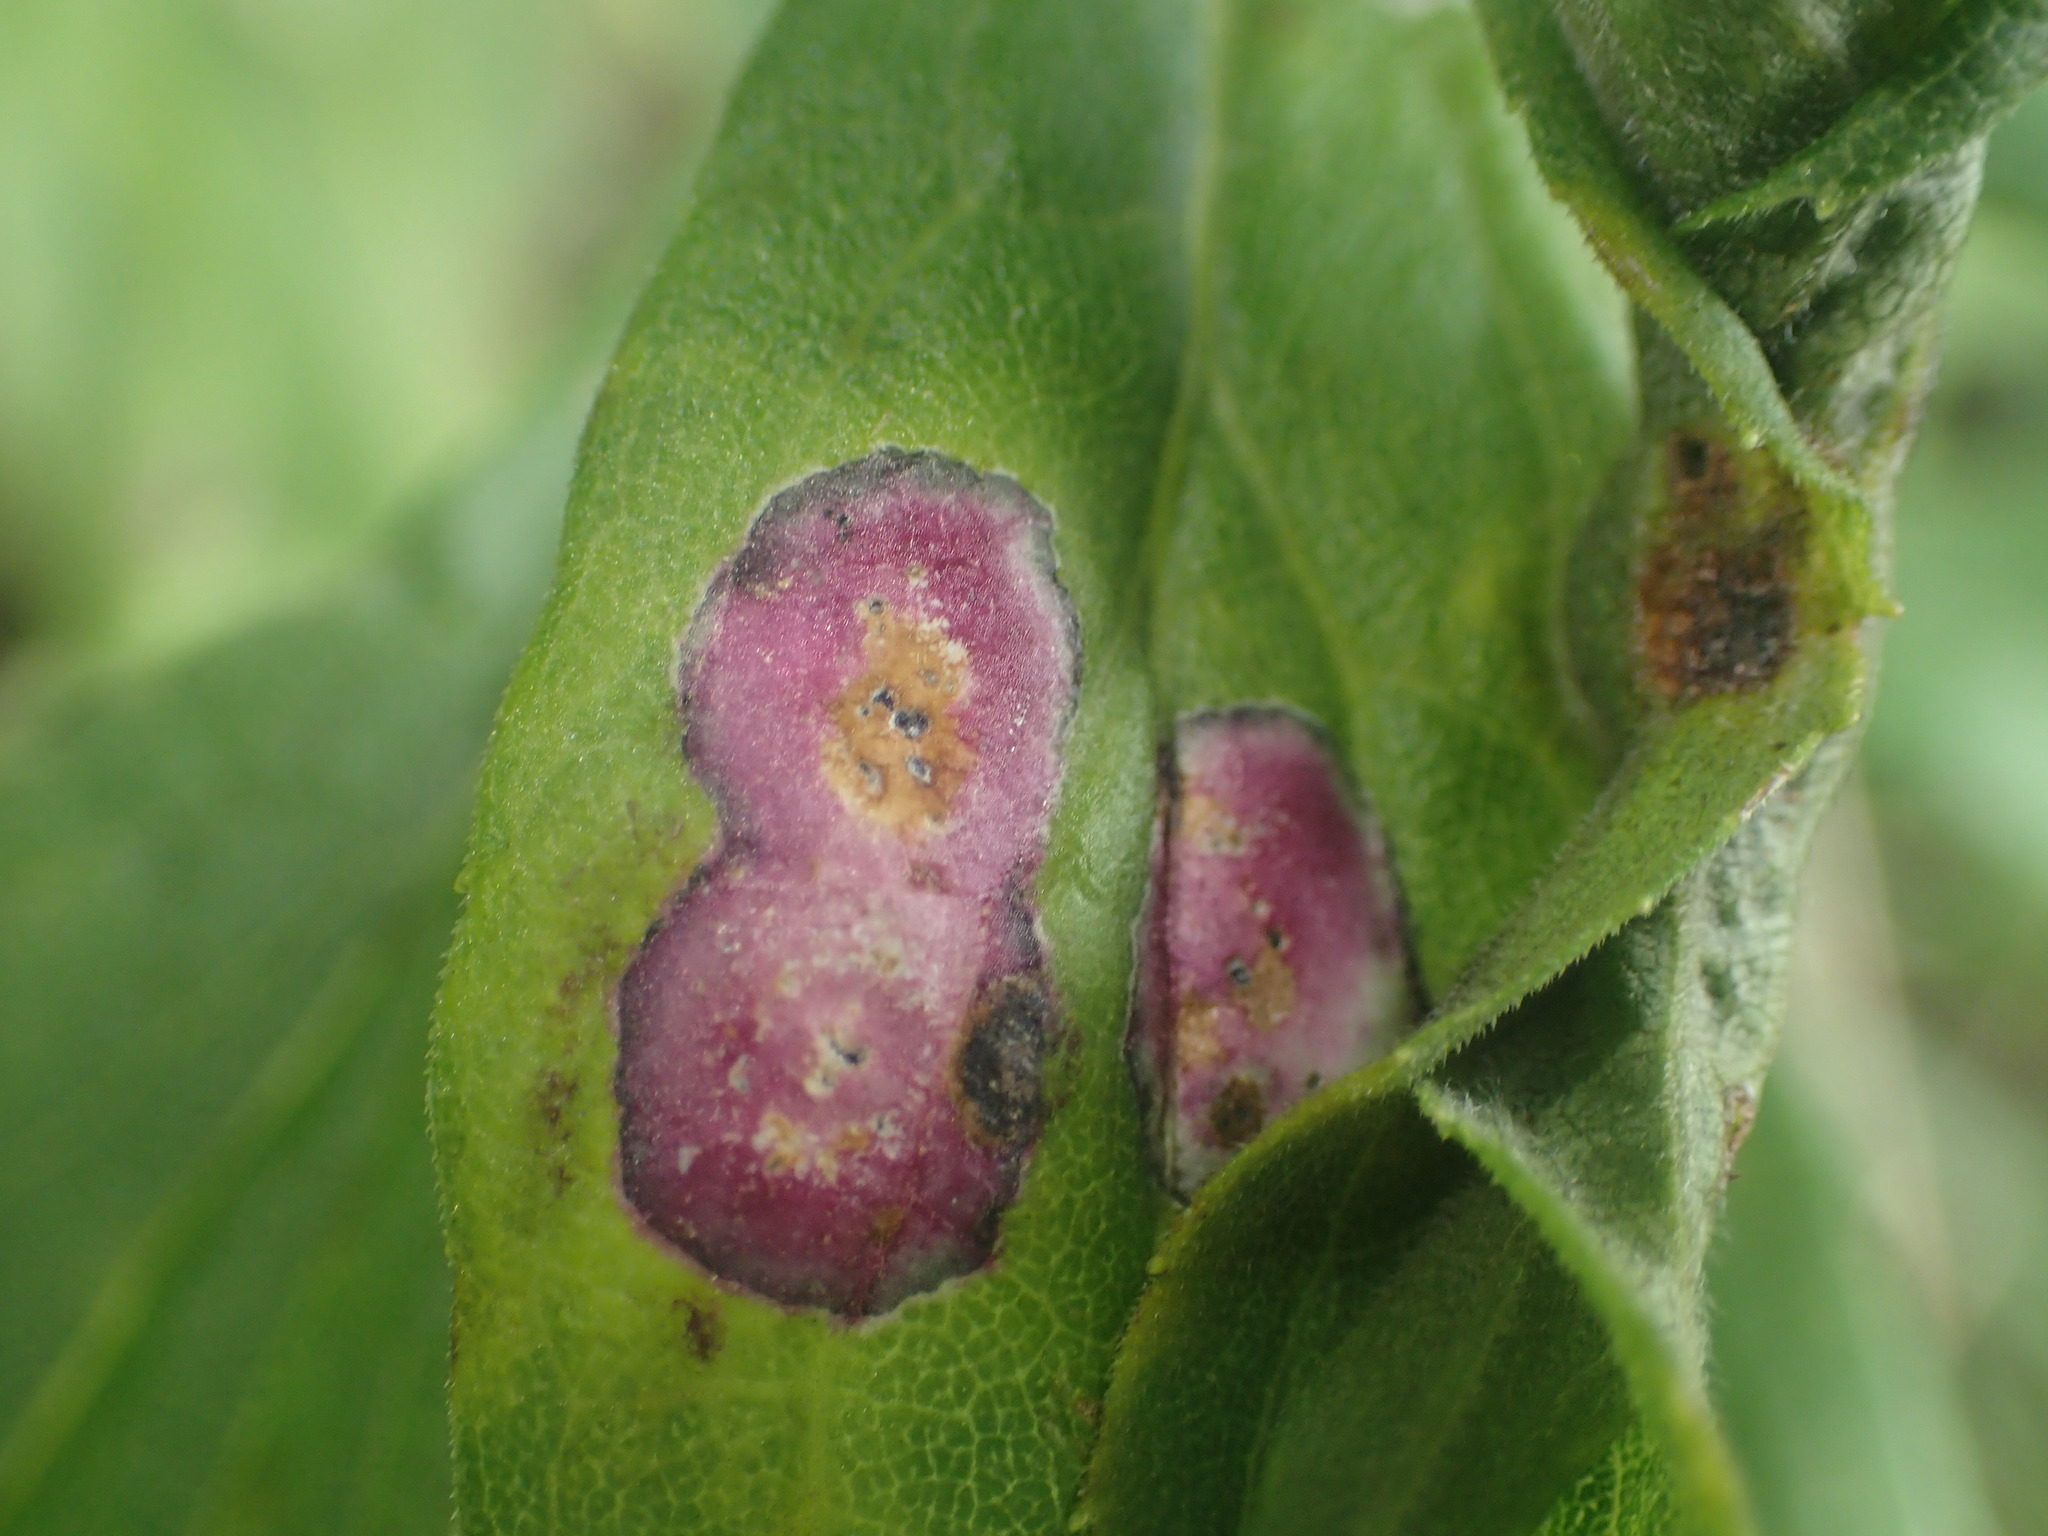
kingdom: Animalia
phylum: Arthropoda
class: Insecta
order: Diptera
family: Cecidomyiidae
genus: Asteromyia
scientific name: Asteromyia carbonifera
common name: Carbonifera goldenrod gall midge
